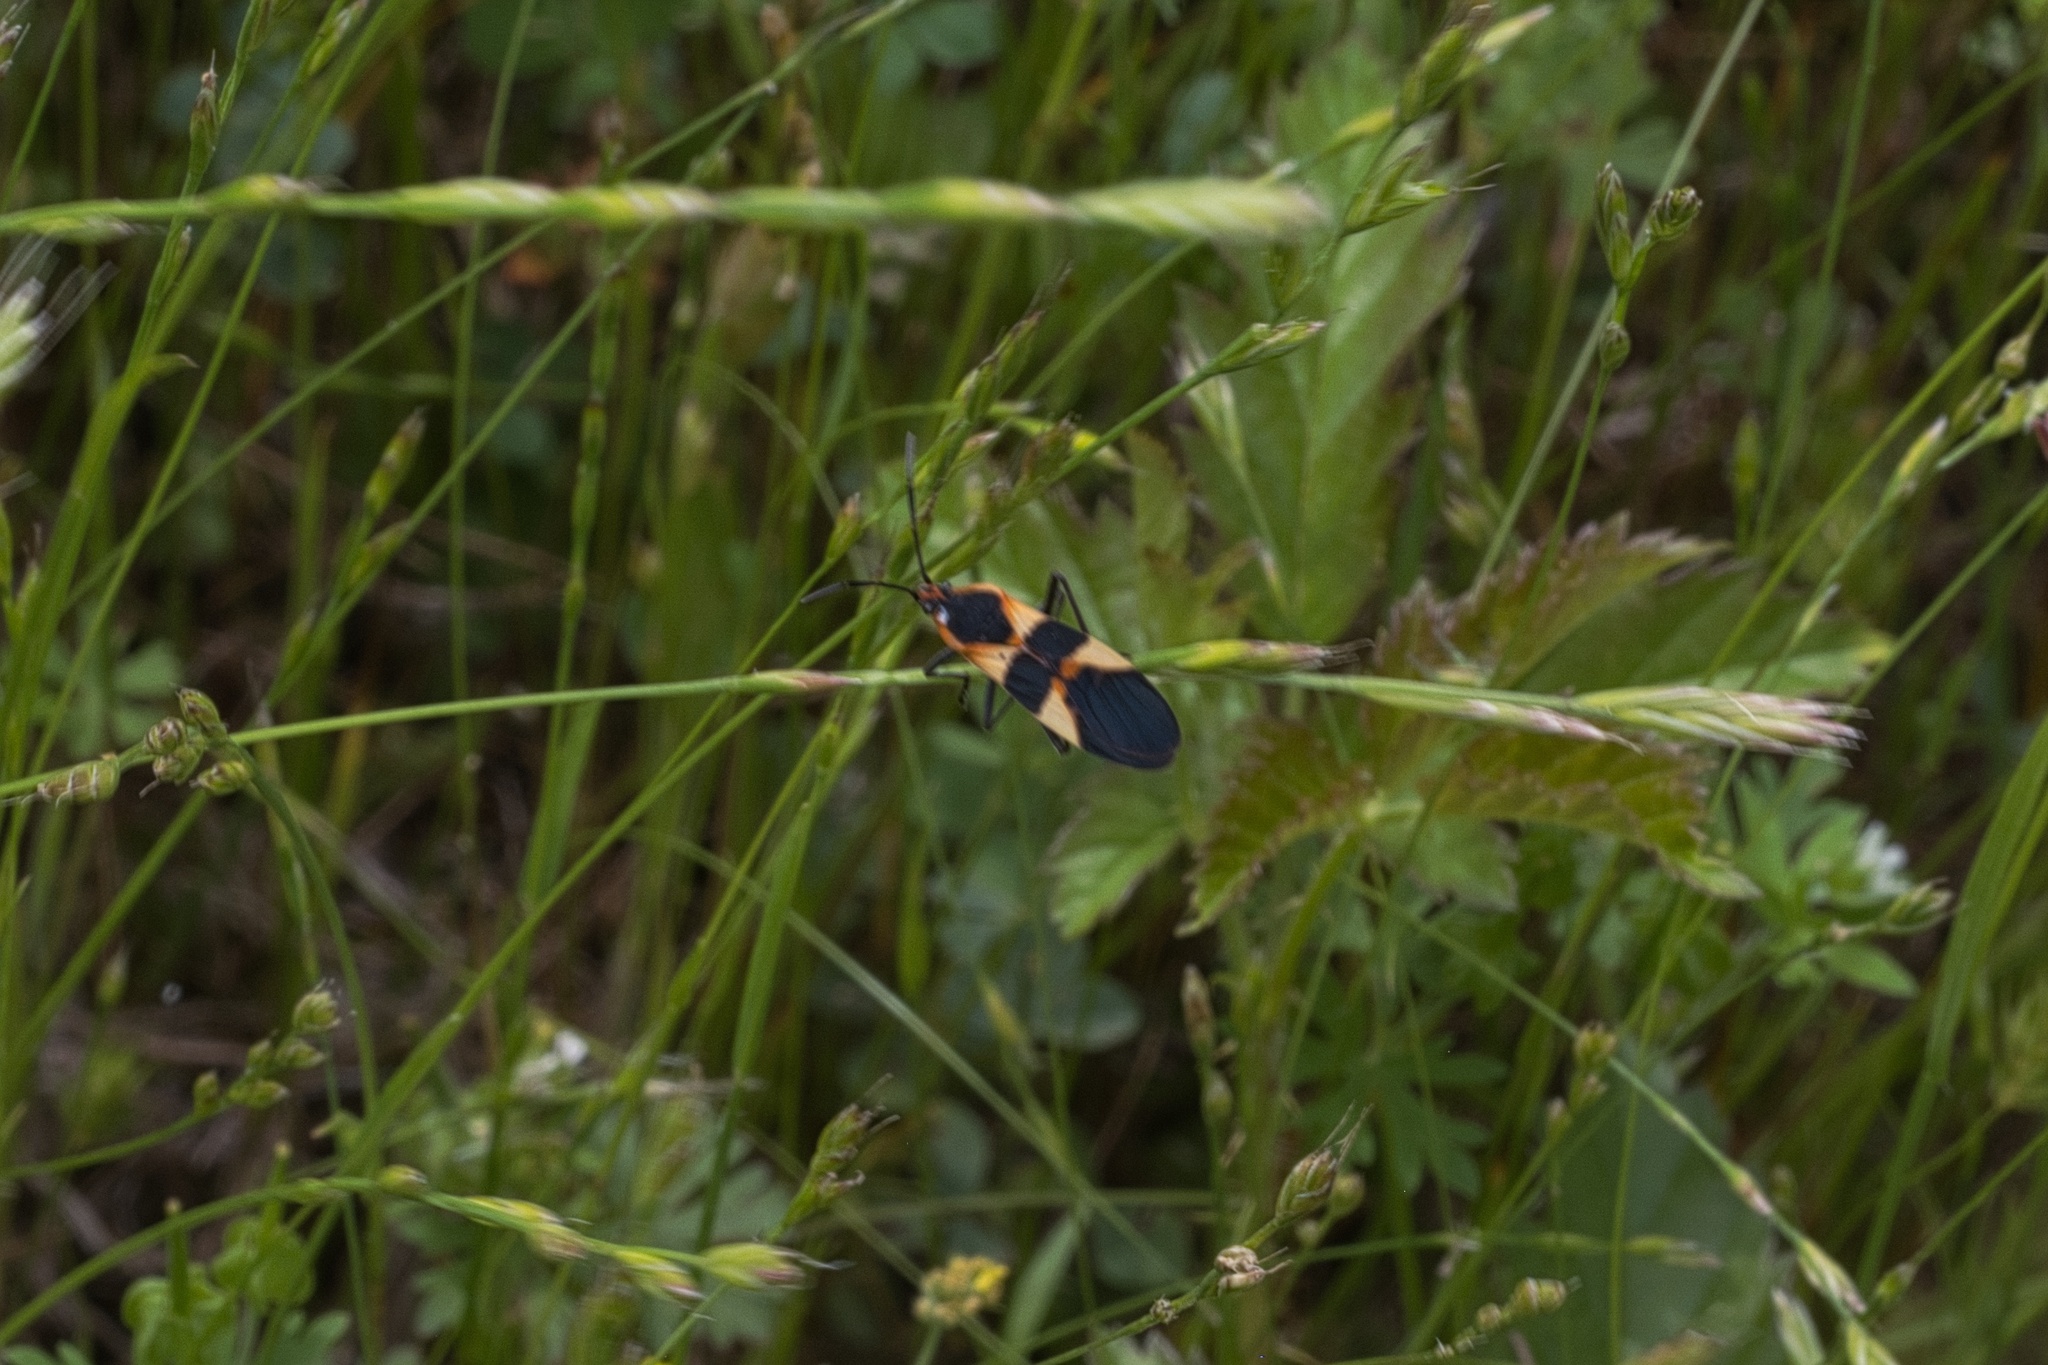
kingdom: Animalia
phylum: Arthropoda
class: Insecta
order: Hemiptera
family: Lygaeidae
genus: Oncopeltus
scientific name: Oncopeltus fasciatus
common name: Large milkweed bug
